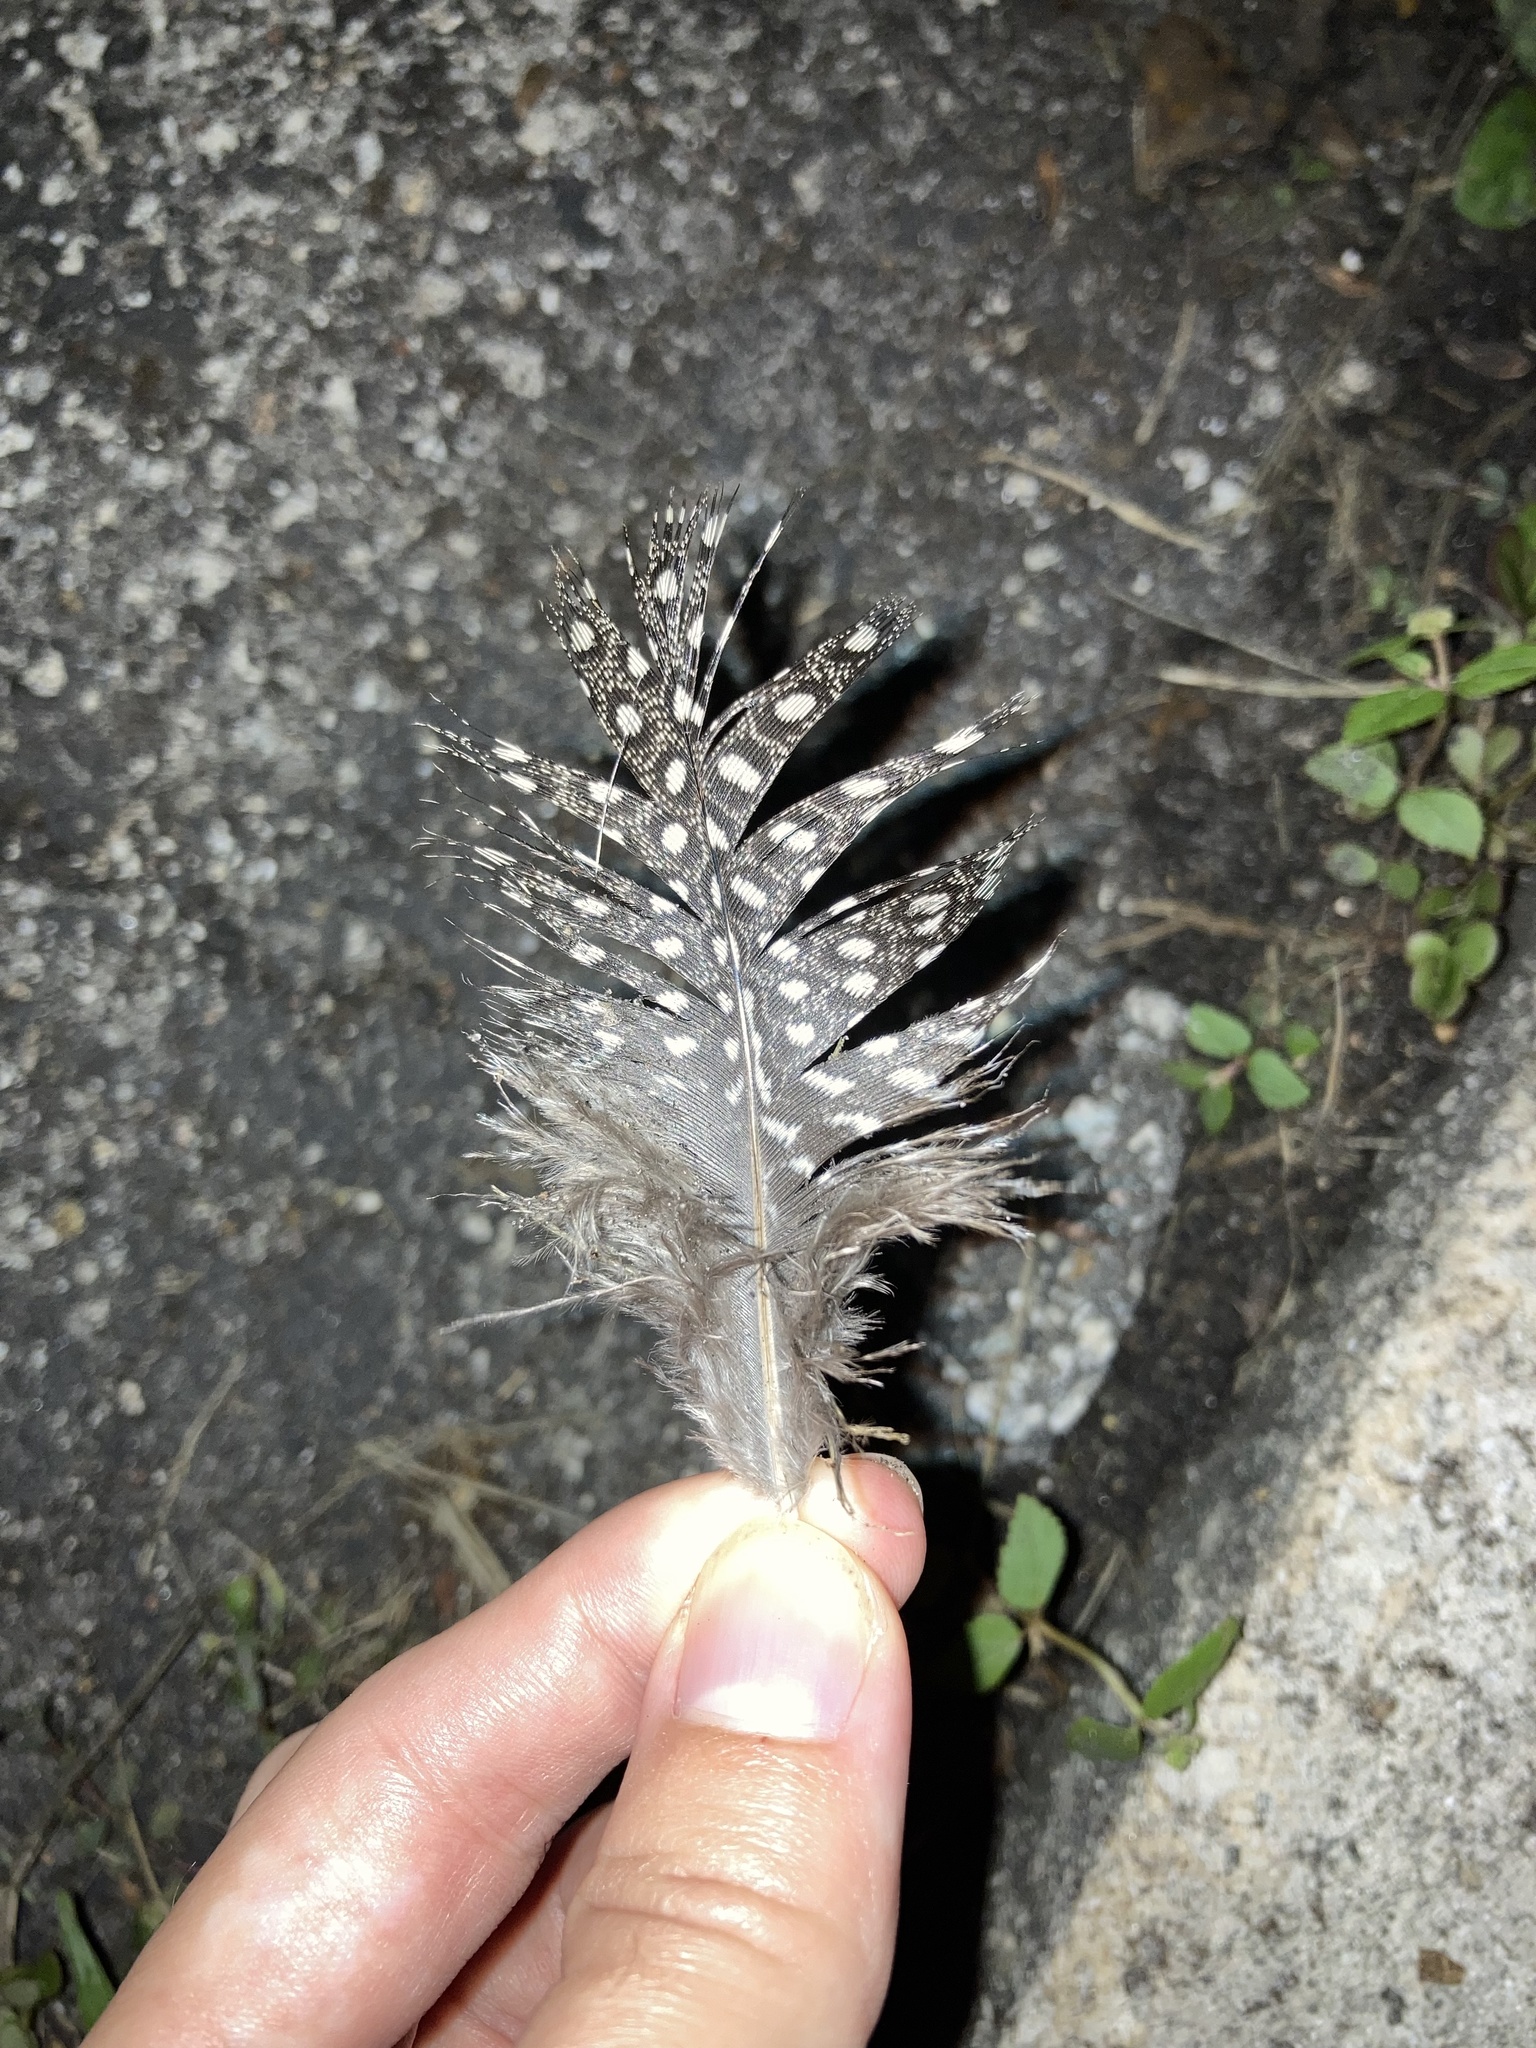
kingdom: Animalia
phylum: Chordata
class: Aves
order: Galliformes
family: Numididae
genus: Numida
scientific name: Numida meleagris
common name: Helmeted guineafowl
